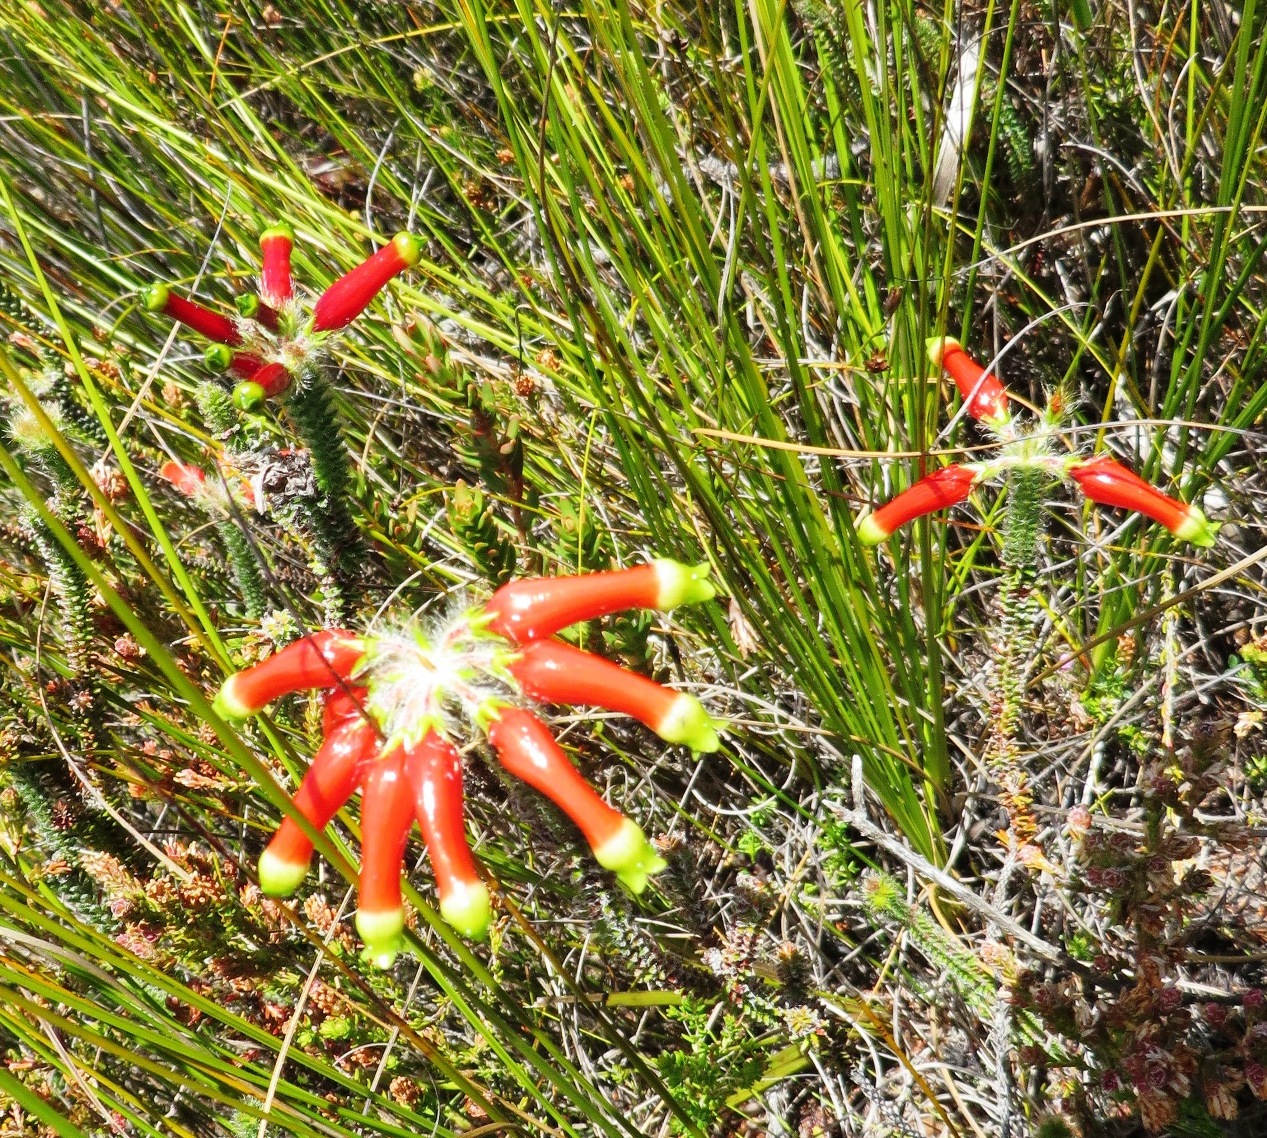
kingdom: Plantae
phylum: Tracheophyta
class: Magnoliopsida
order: Ericales
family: Ericaceae
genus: Erica
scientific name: Erica massonii
